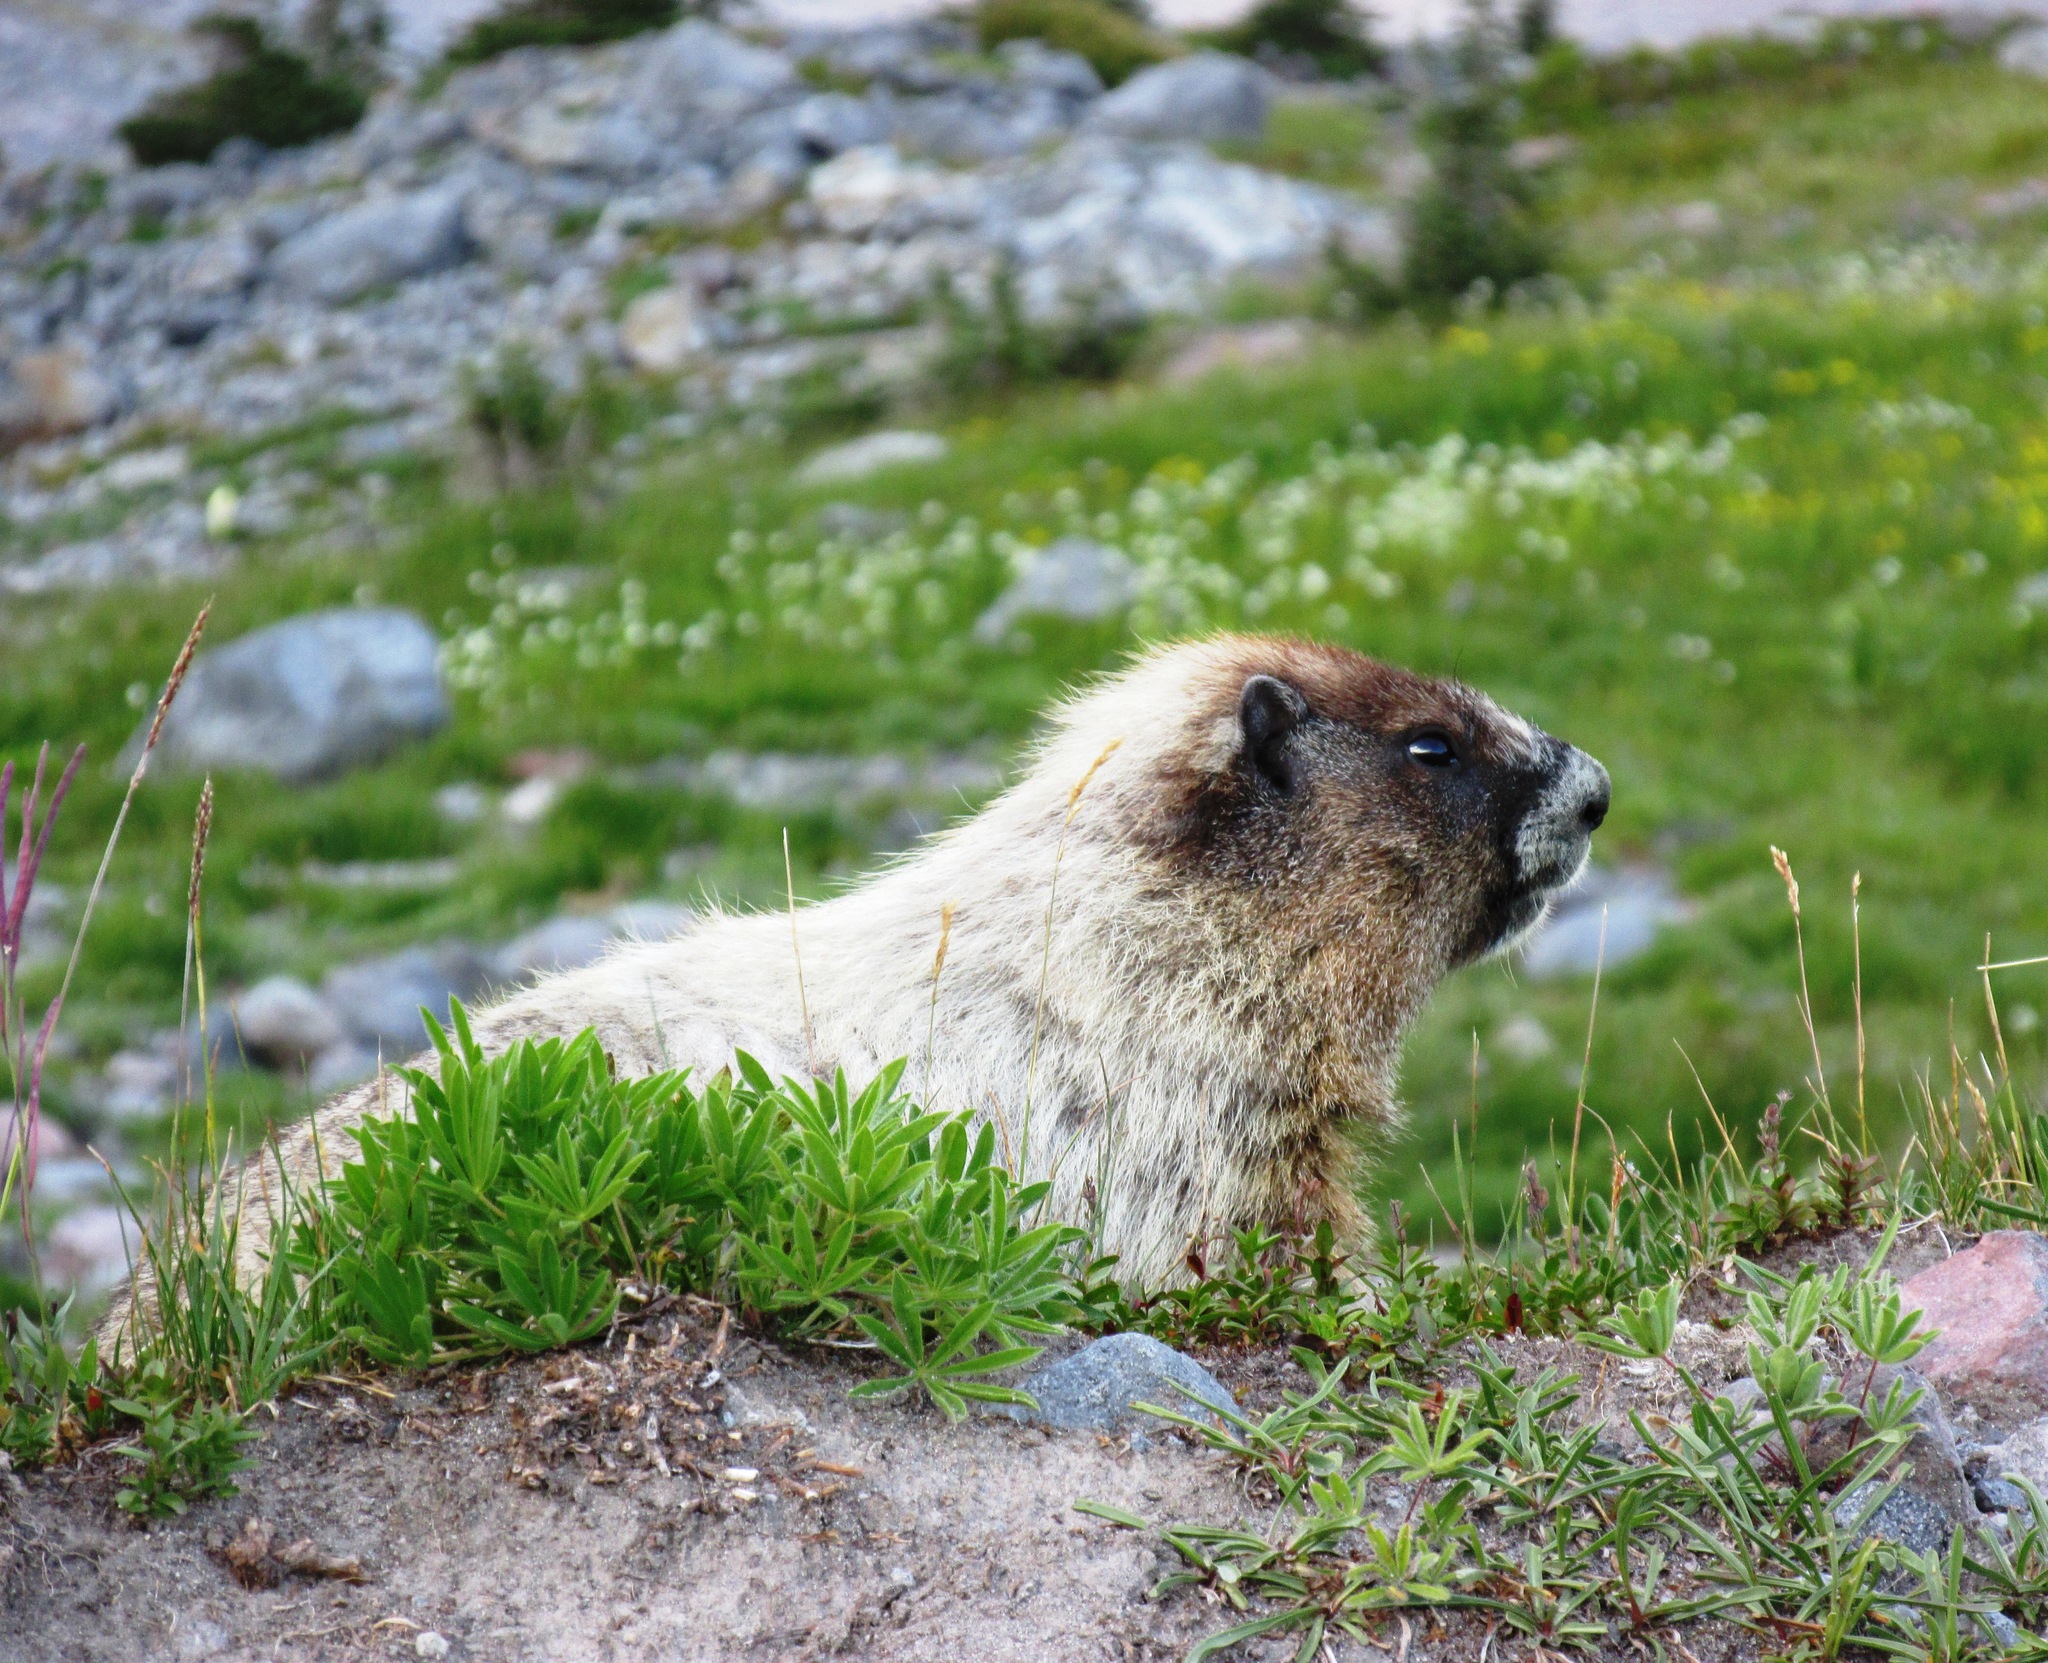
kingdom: Animalia
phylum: Chordata
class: Mammalia
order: Rodentia
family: Sciuridae
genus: Marmota
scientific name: Marmota caligata
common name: Hoary marmot
